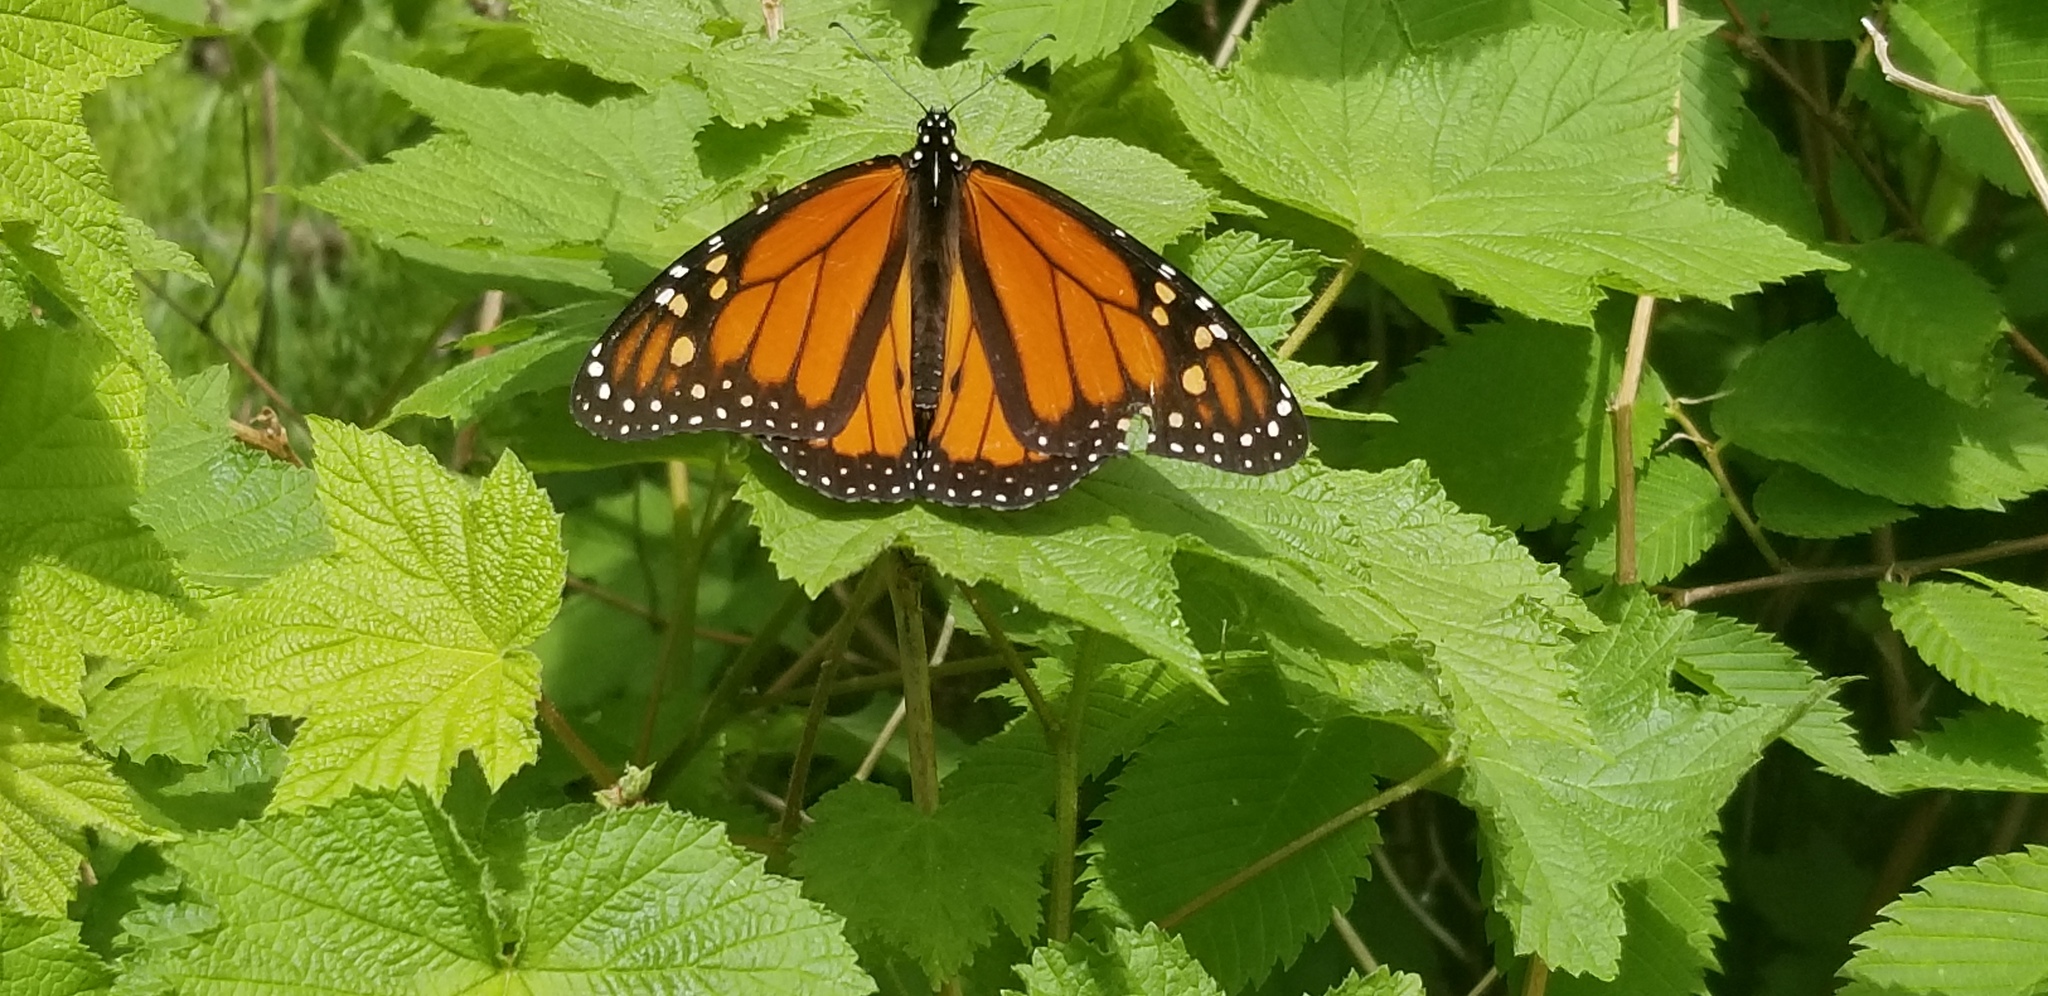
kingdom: Animalia
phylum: Arthropoda
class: Insecta
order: Lepidoptera
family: Nymphalidae
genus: Danaus
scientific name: Danaus plexippus
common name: Monarch
